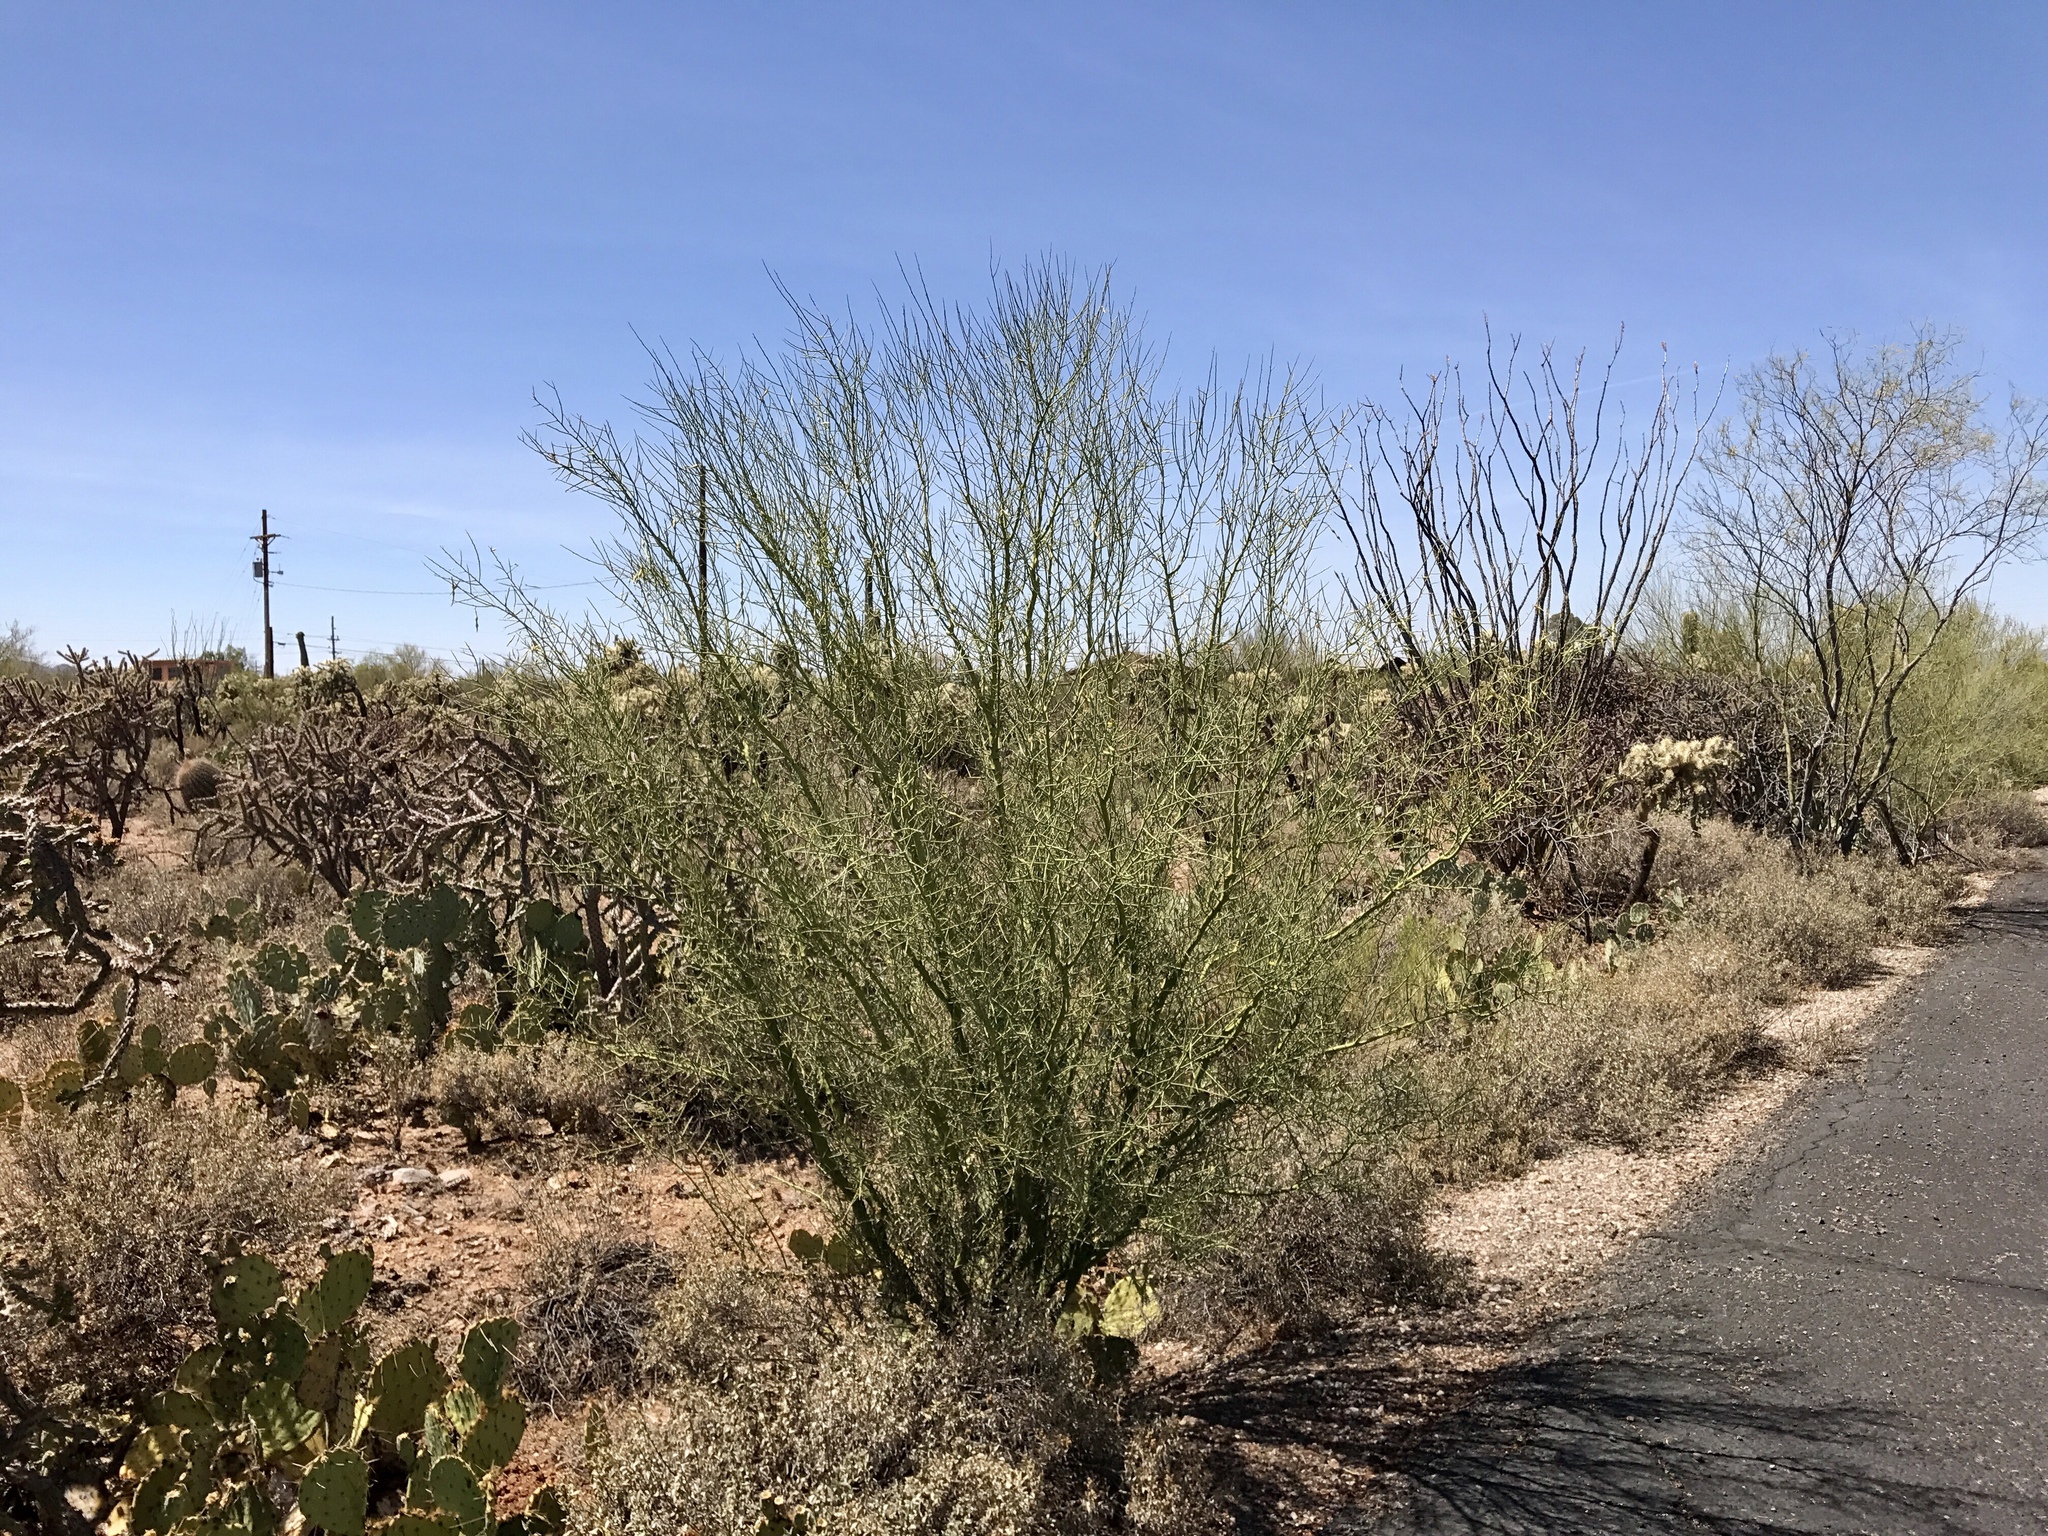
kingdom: Plantae
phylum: Tracheophyta
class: Magnoliopsida
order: Fabales
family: Fabaceae
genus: Parkinsonia
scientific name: Parkinsonia florida
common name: Blue paloverde
